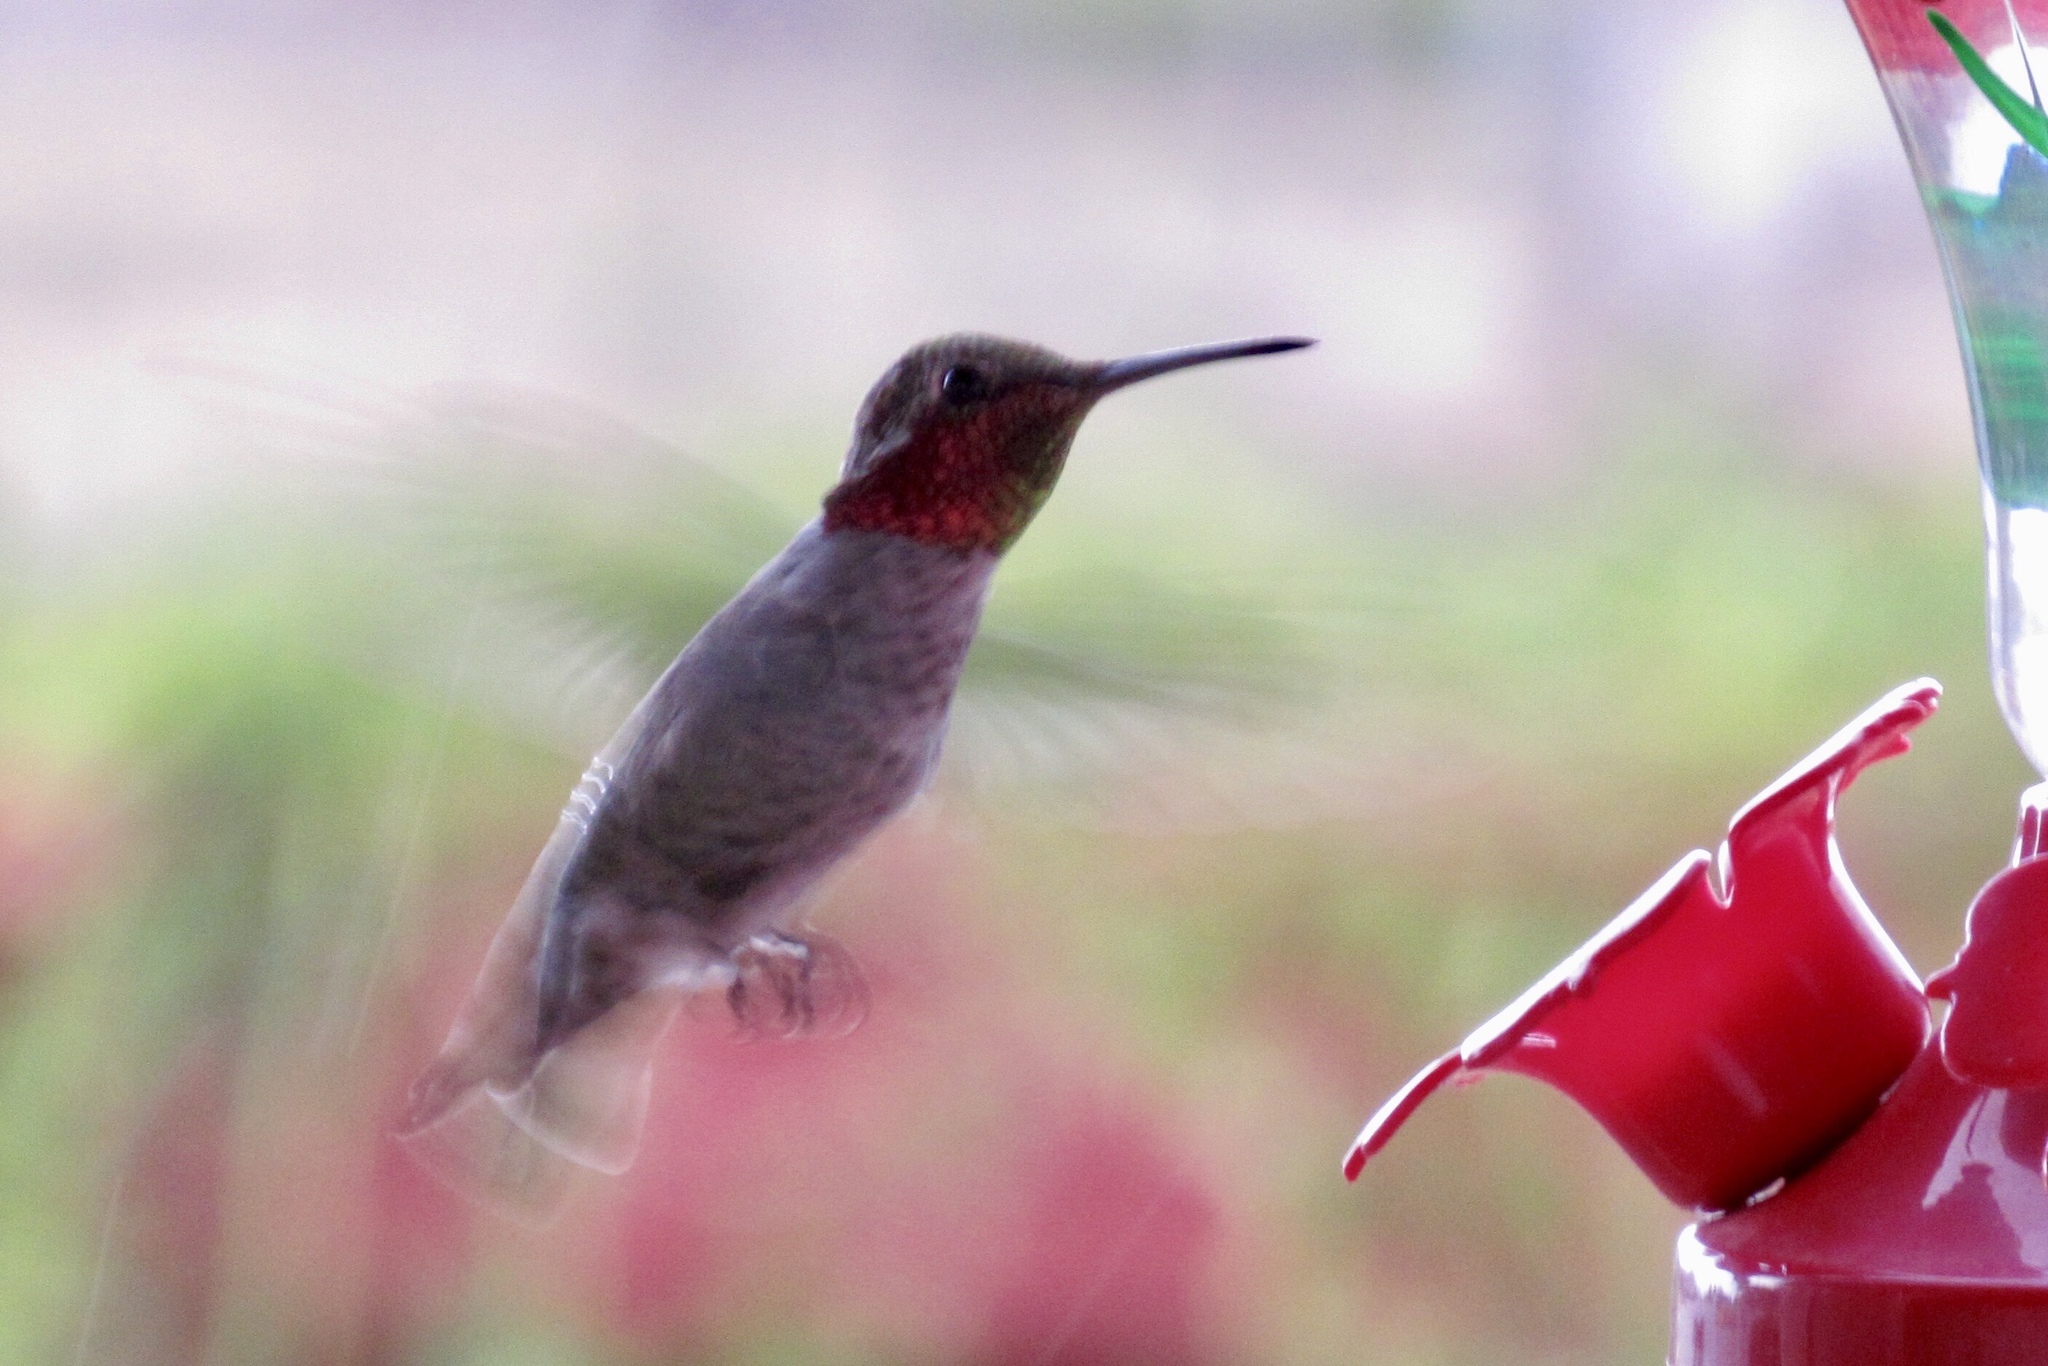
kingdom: Animalia
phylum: Chordata
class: Aves
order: Apodiformes
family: Trochilidae
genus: Calypte
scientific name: Calypte anna
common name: Anna's hummingbird
